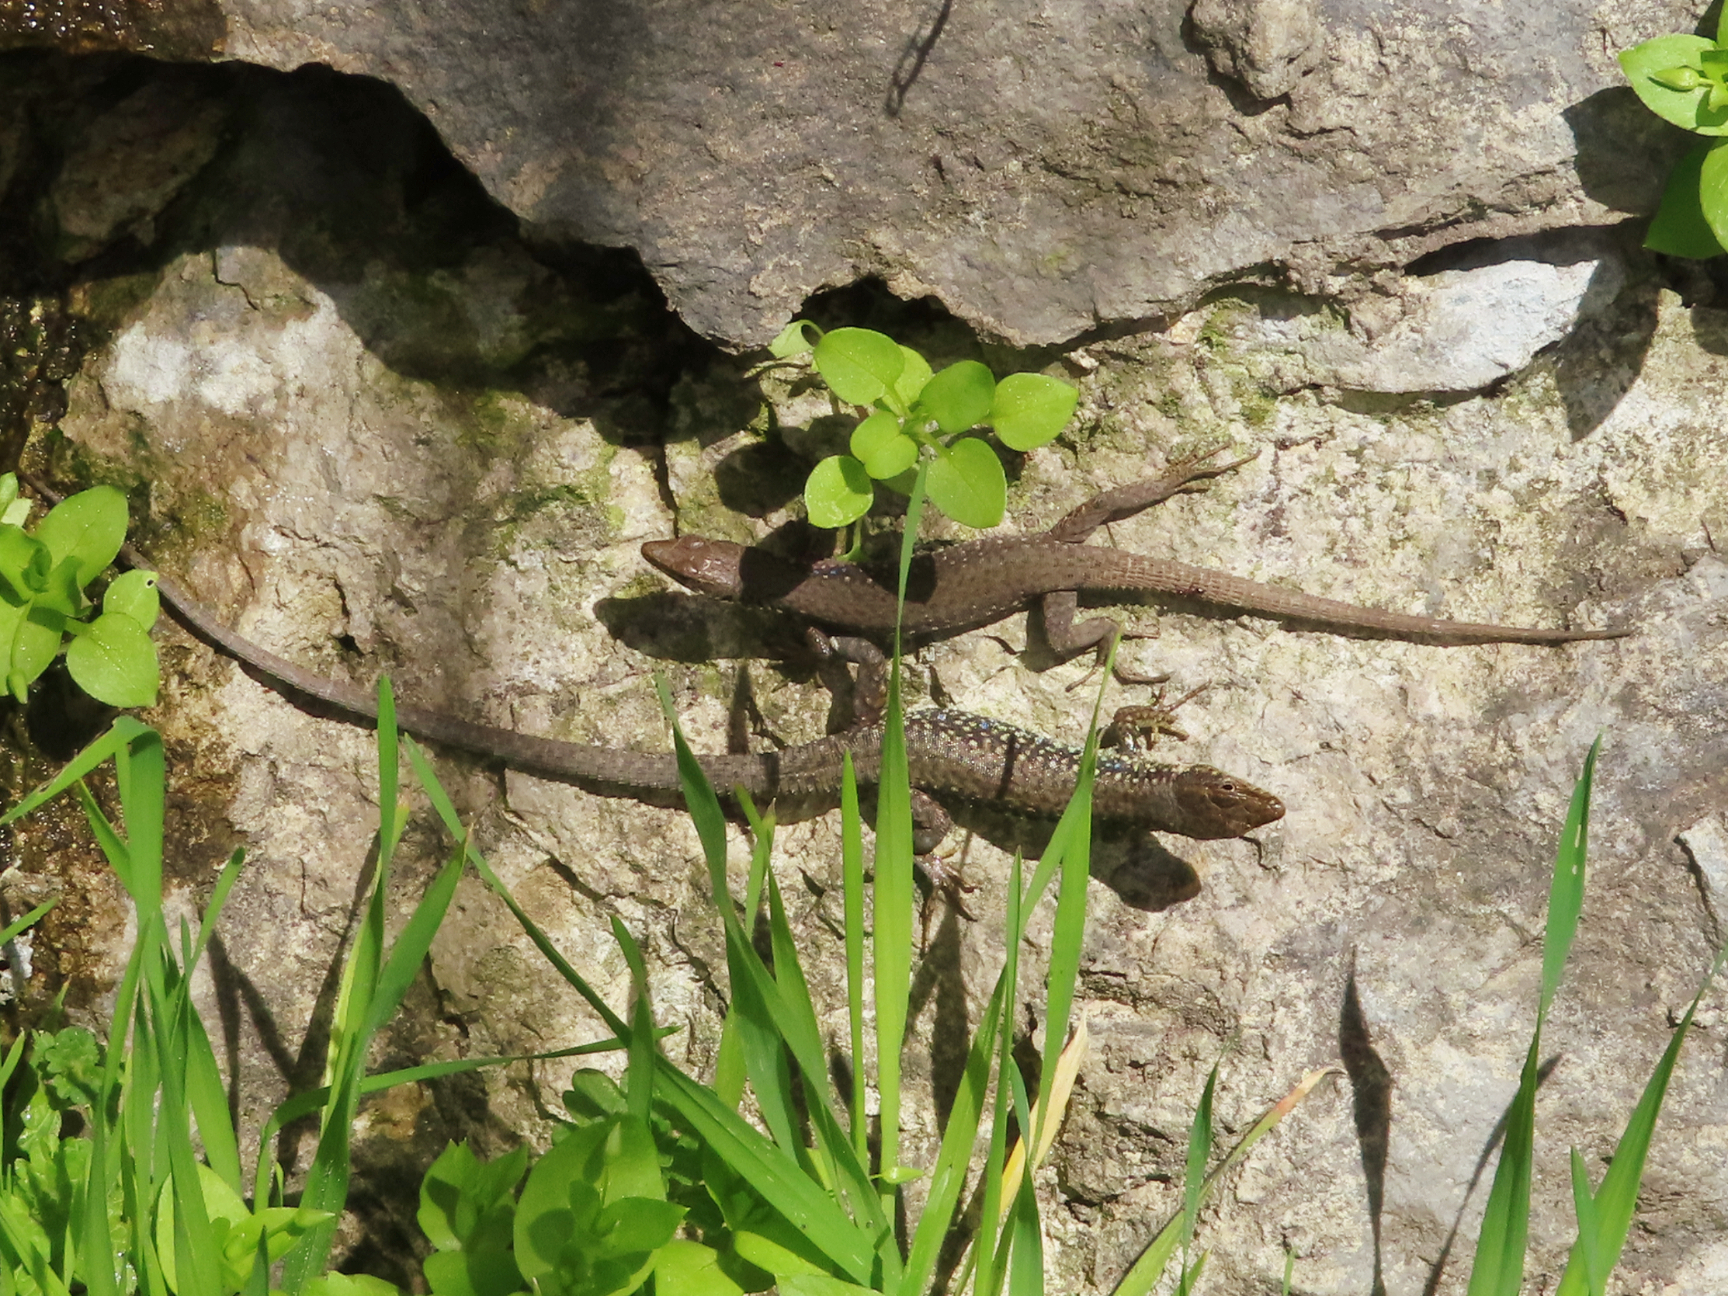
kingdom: Animalia
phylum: Chordata
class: Squamata
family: Lacertidae
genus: Darevskia
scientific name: Darevskia
